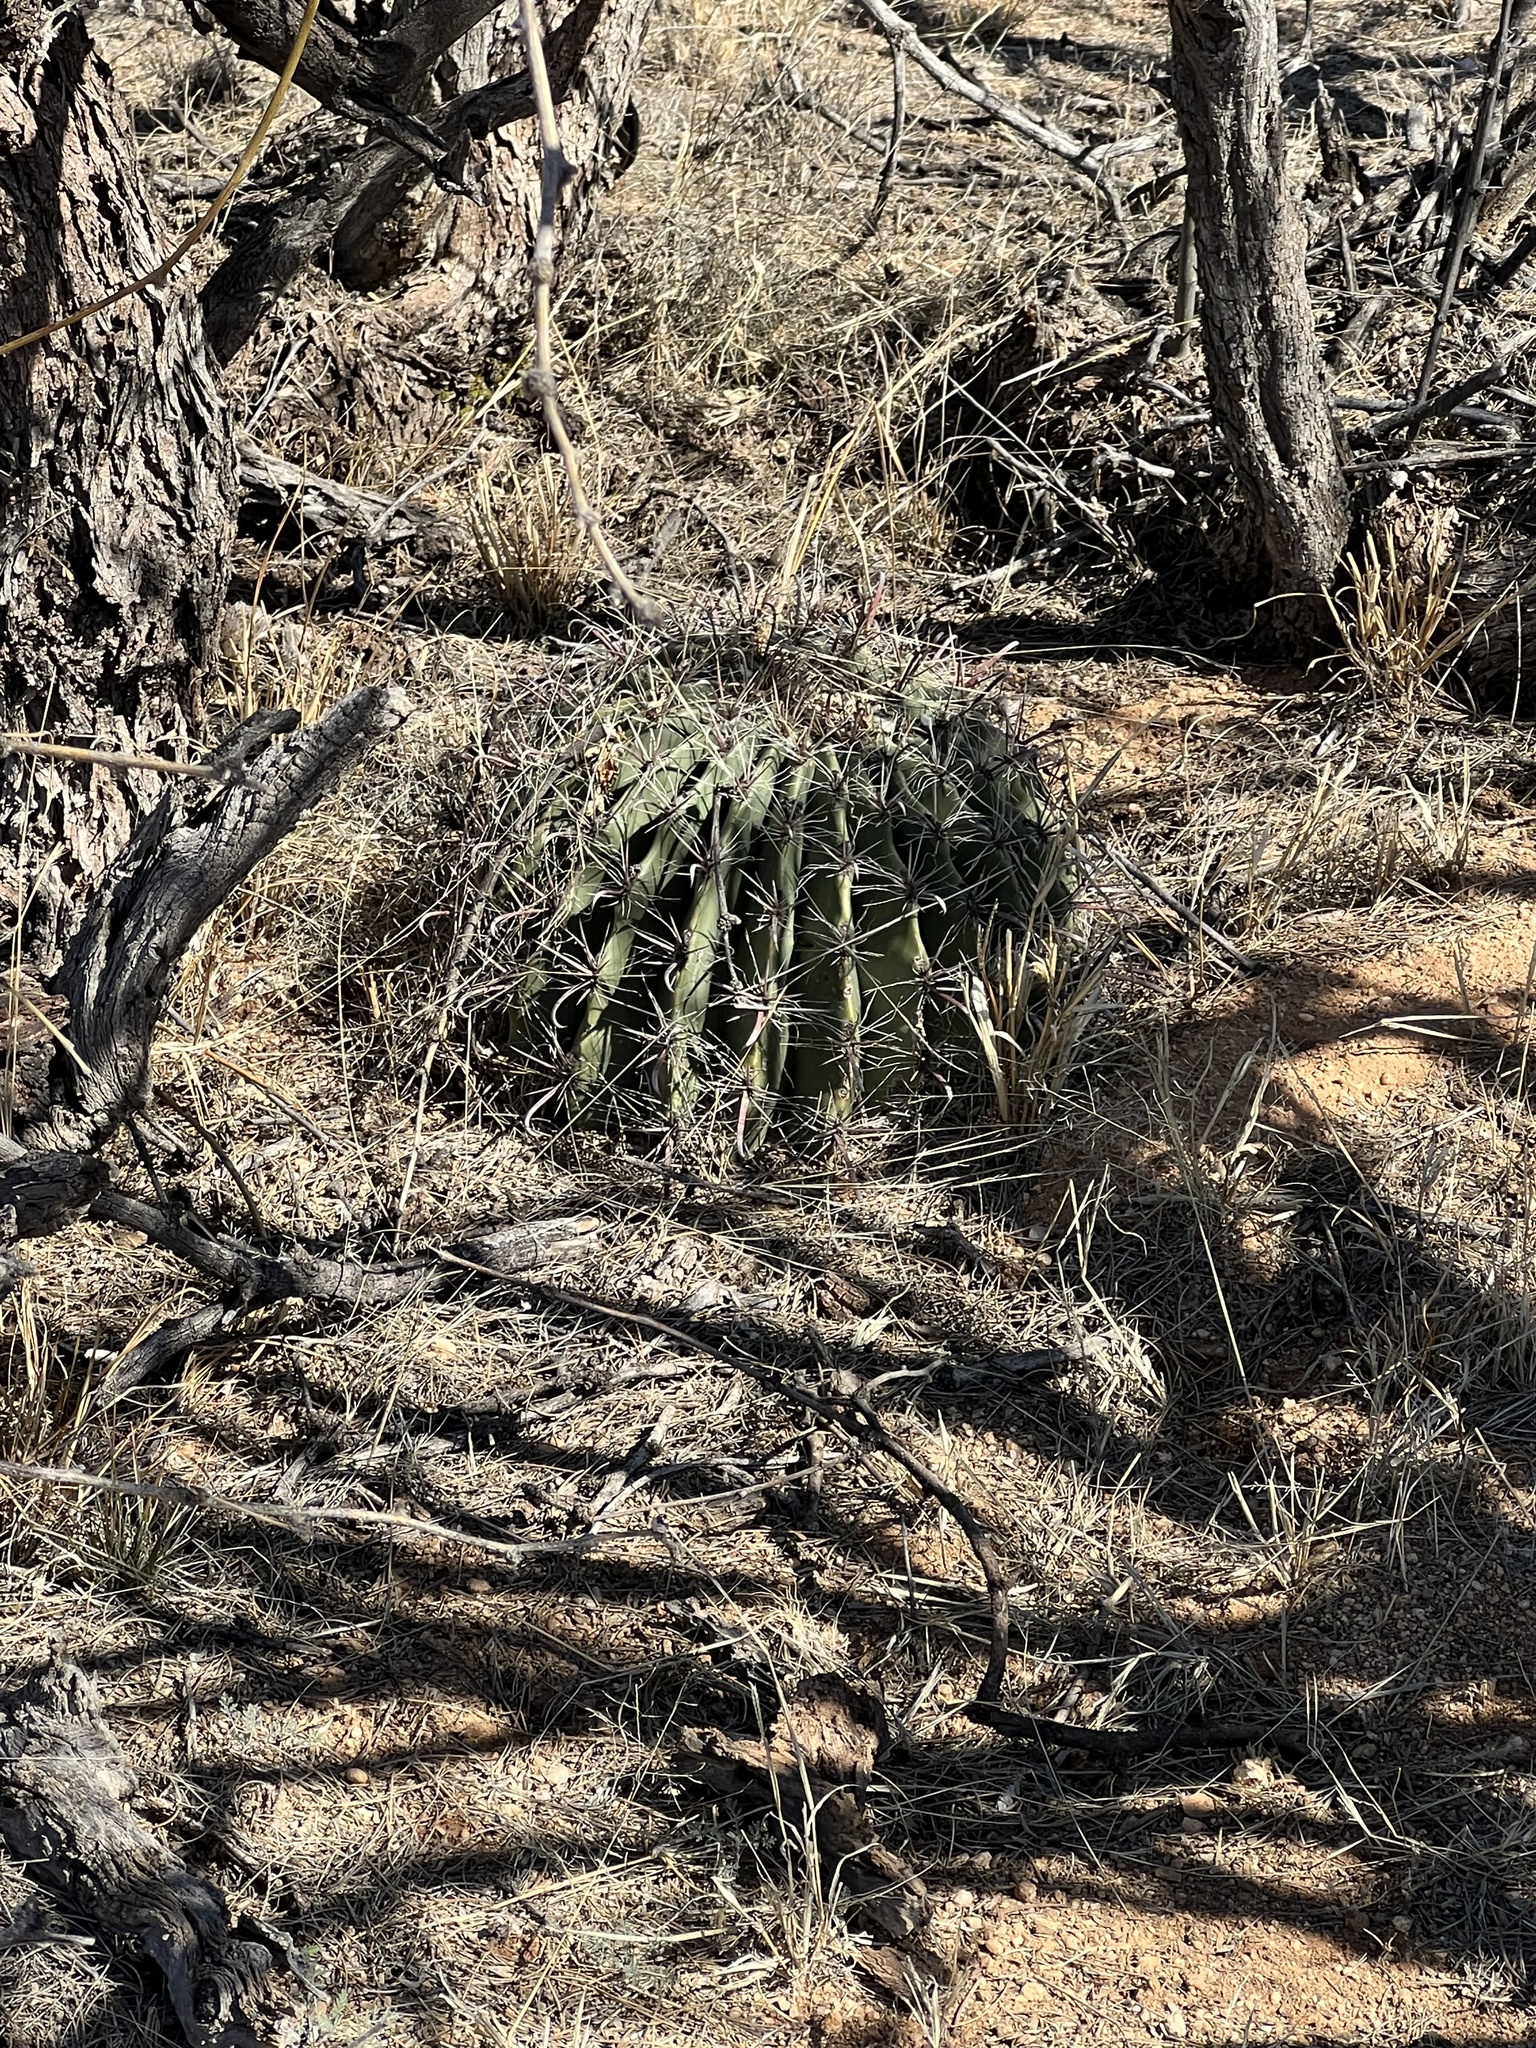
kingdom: Plantae
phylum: Tracheophyta
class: Magnoliopsida
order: Caryophyllales
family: Cactaceae
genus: Ferocactus
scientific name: Ferocactus wislizeni
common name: Candy barrel cactus
